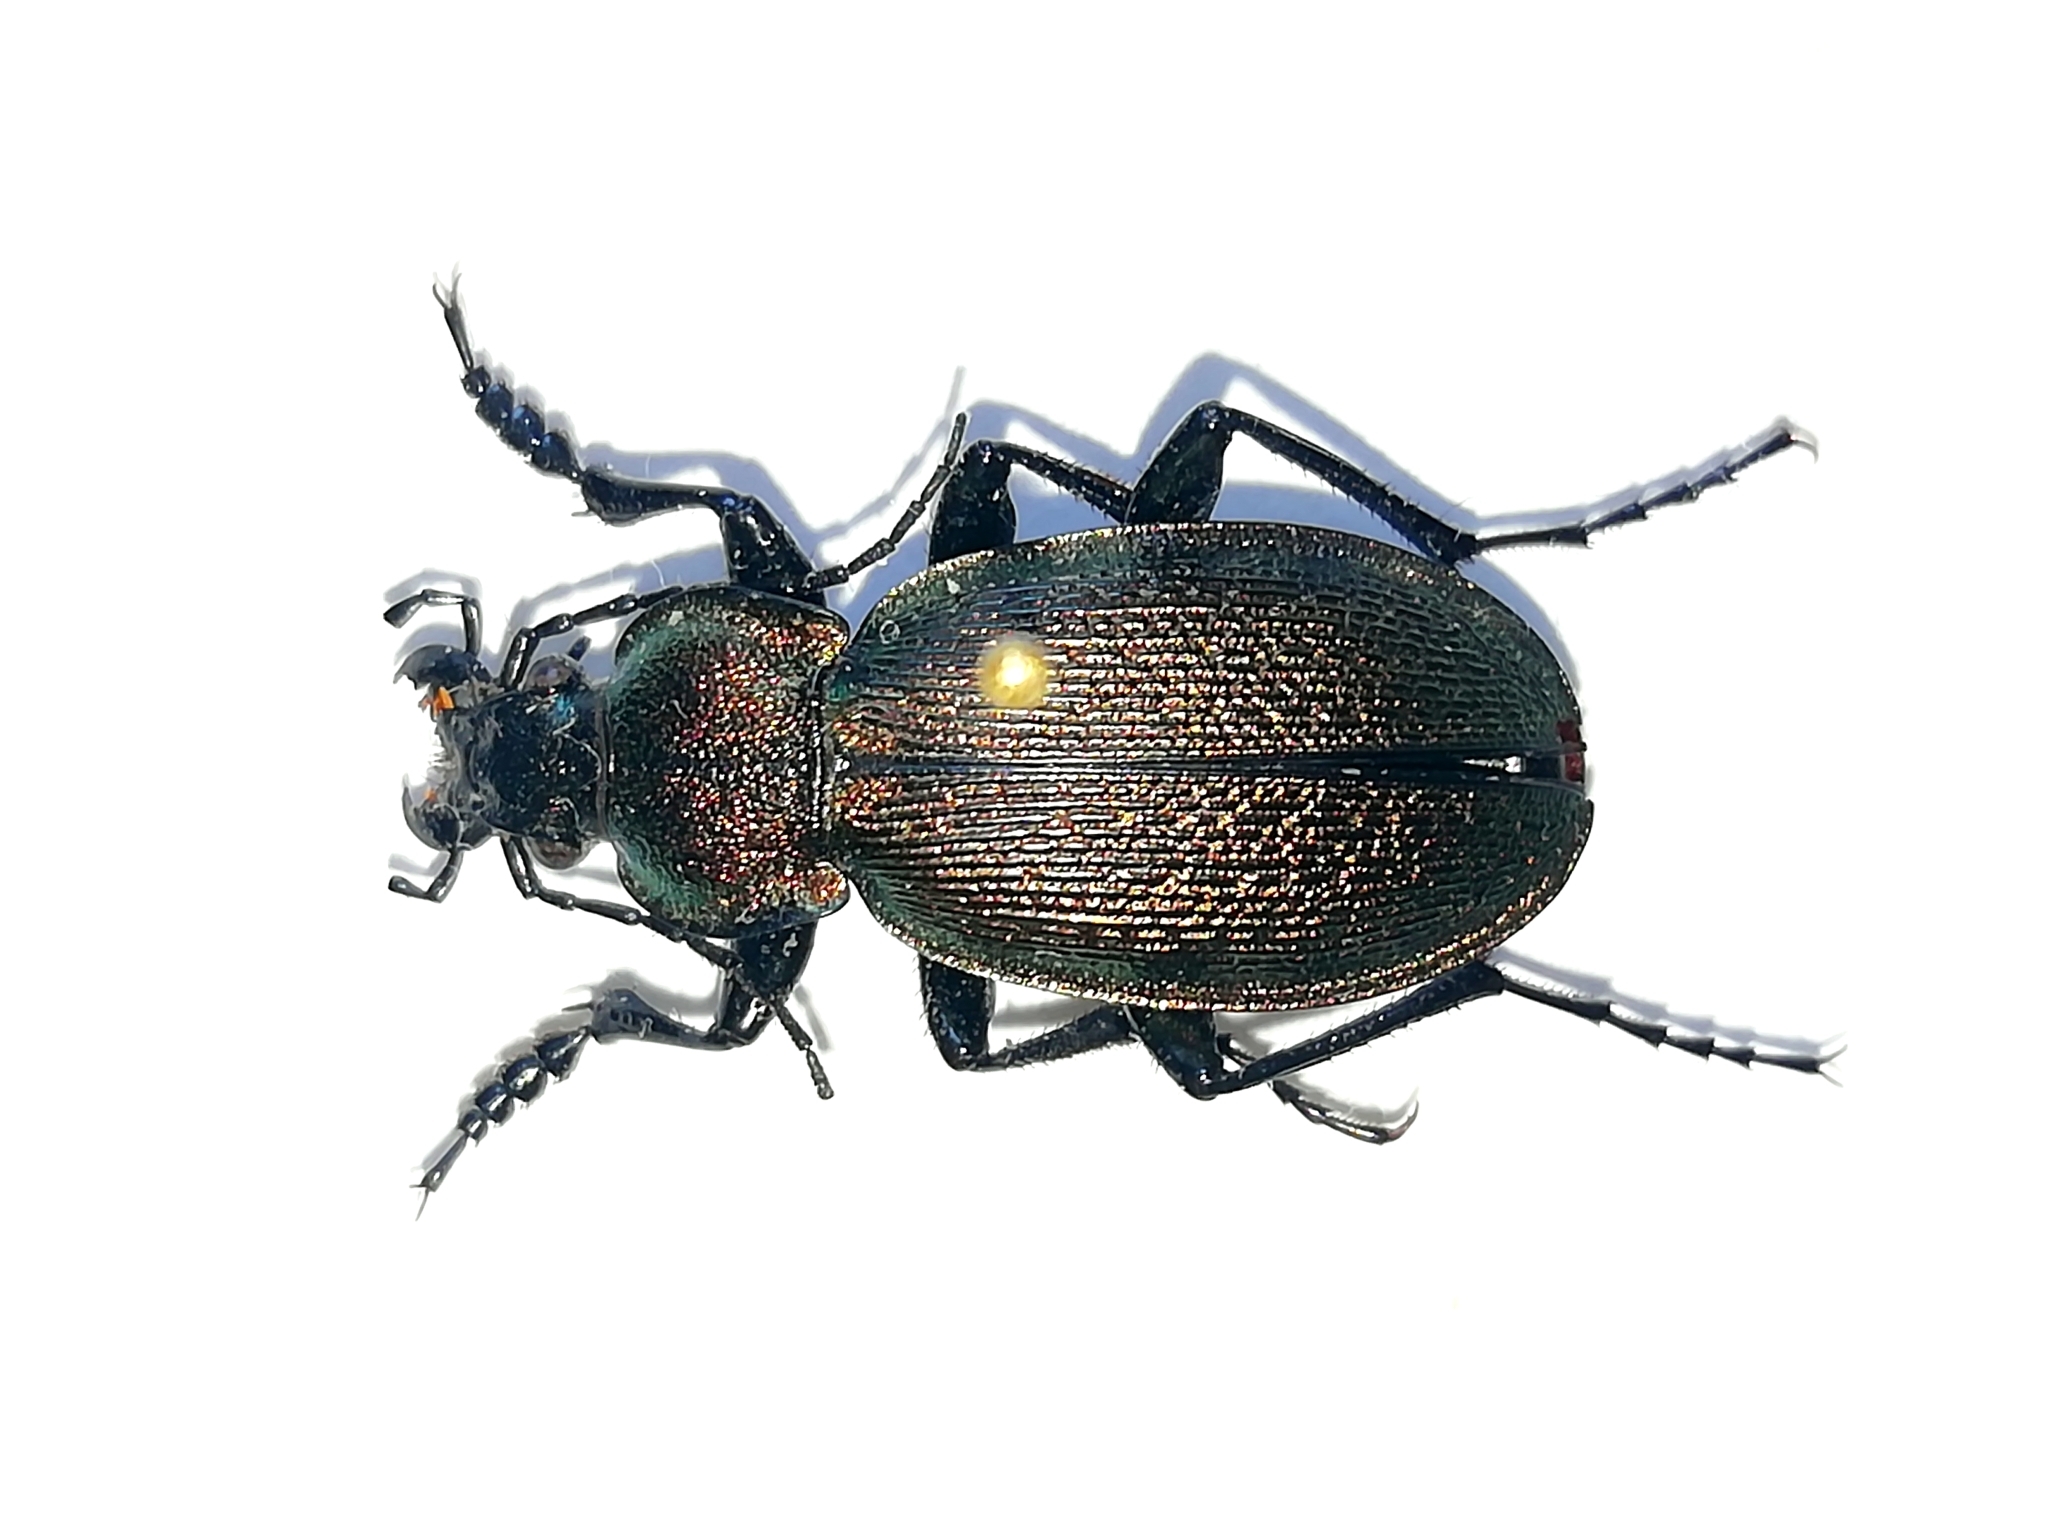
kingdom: Animalia
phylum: Arthropoda
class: Insecta
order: Coleoptera
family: Carabidae
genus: Carabus
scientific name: Carabus regalis
